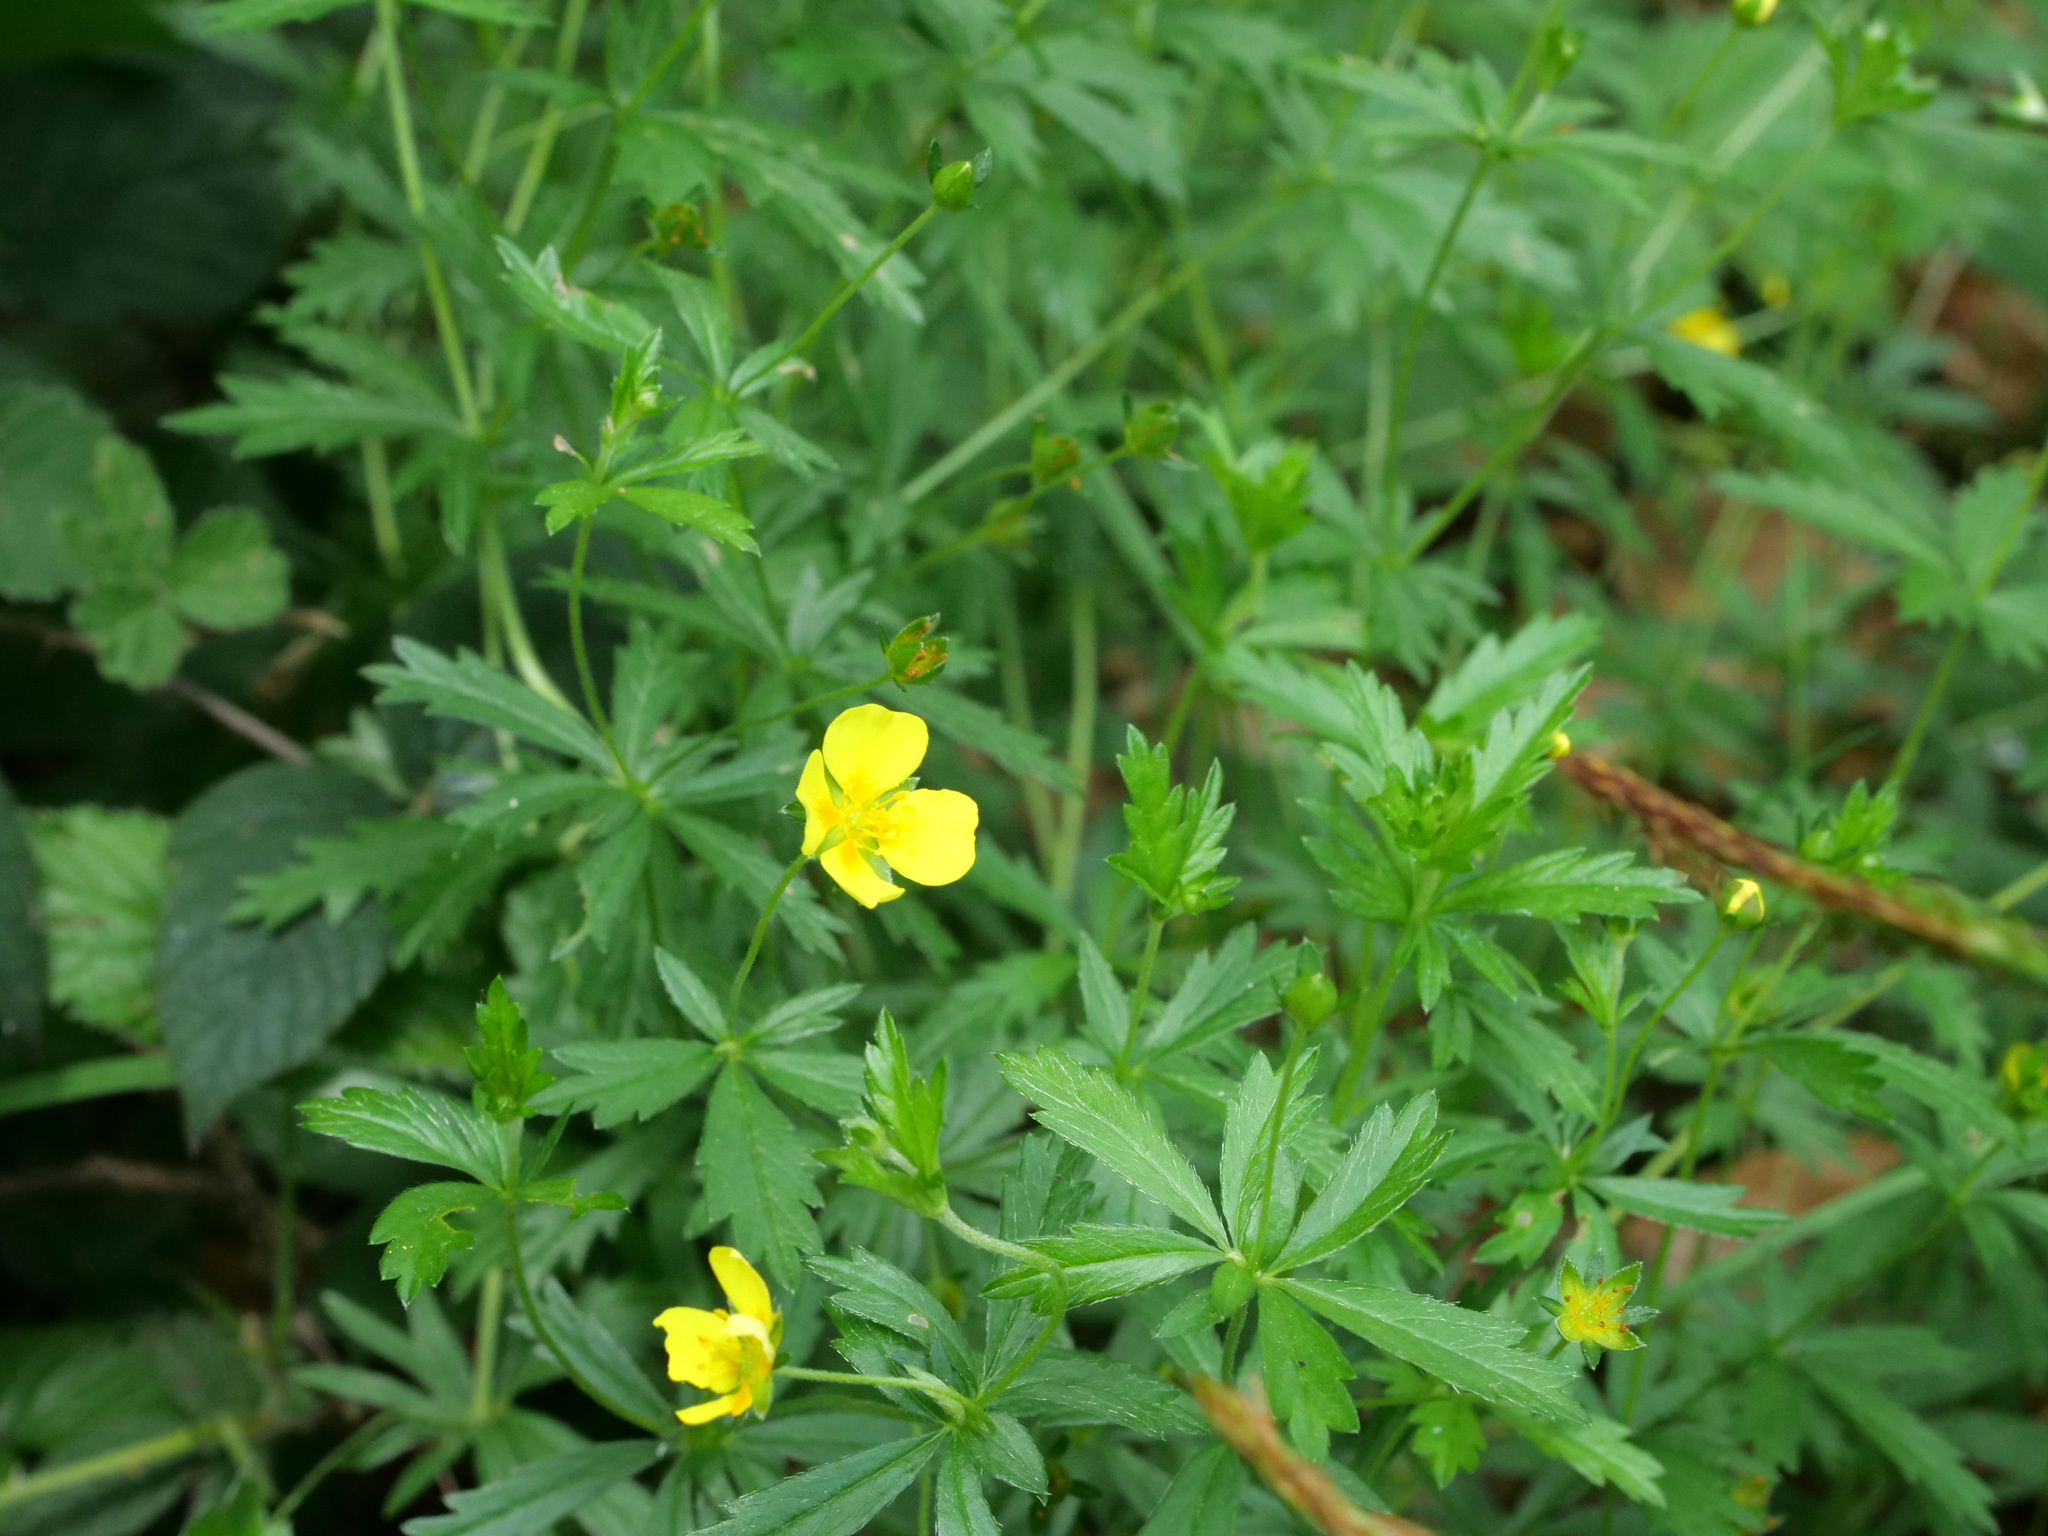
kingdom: Plantae
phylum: Tracheophyta
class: Magnoliopsida
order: Rosales
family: Rosaceae
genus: Potentilla
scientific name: Potentilla erecta
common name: Tormentil
